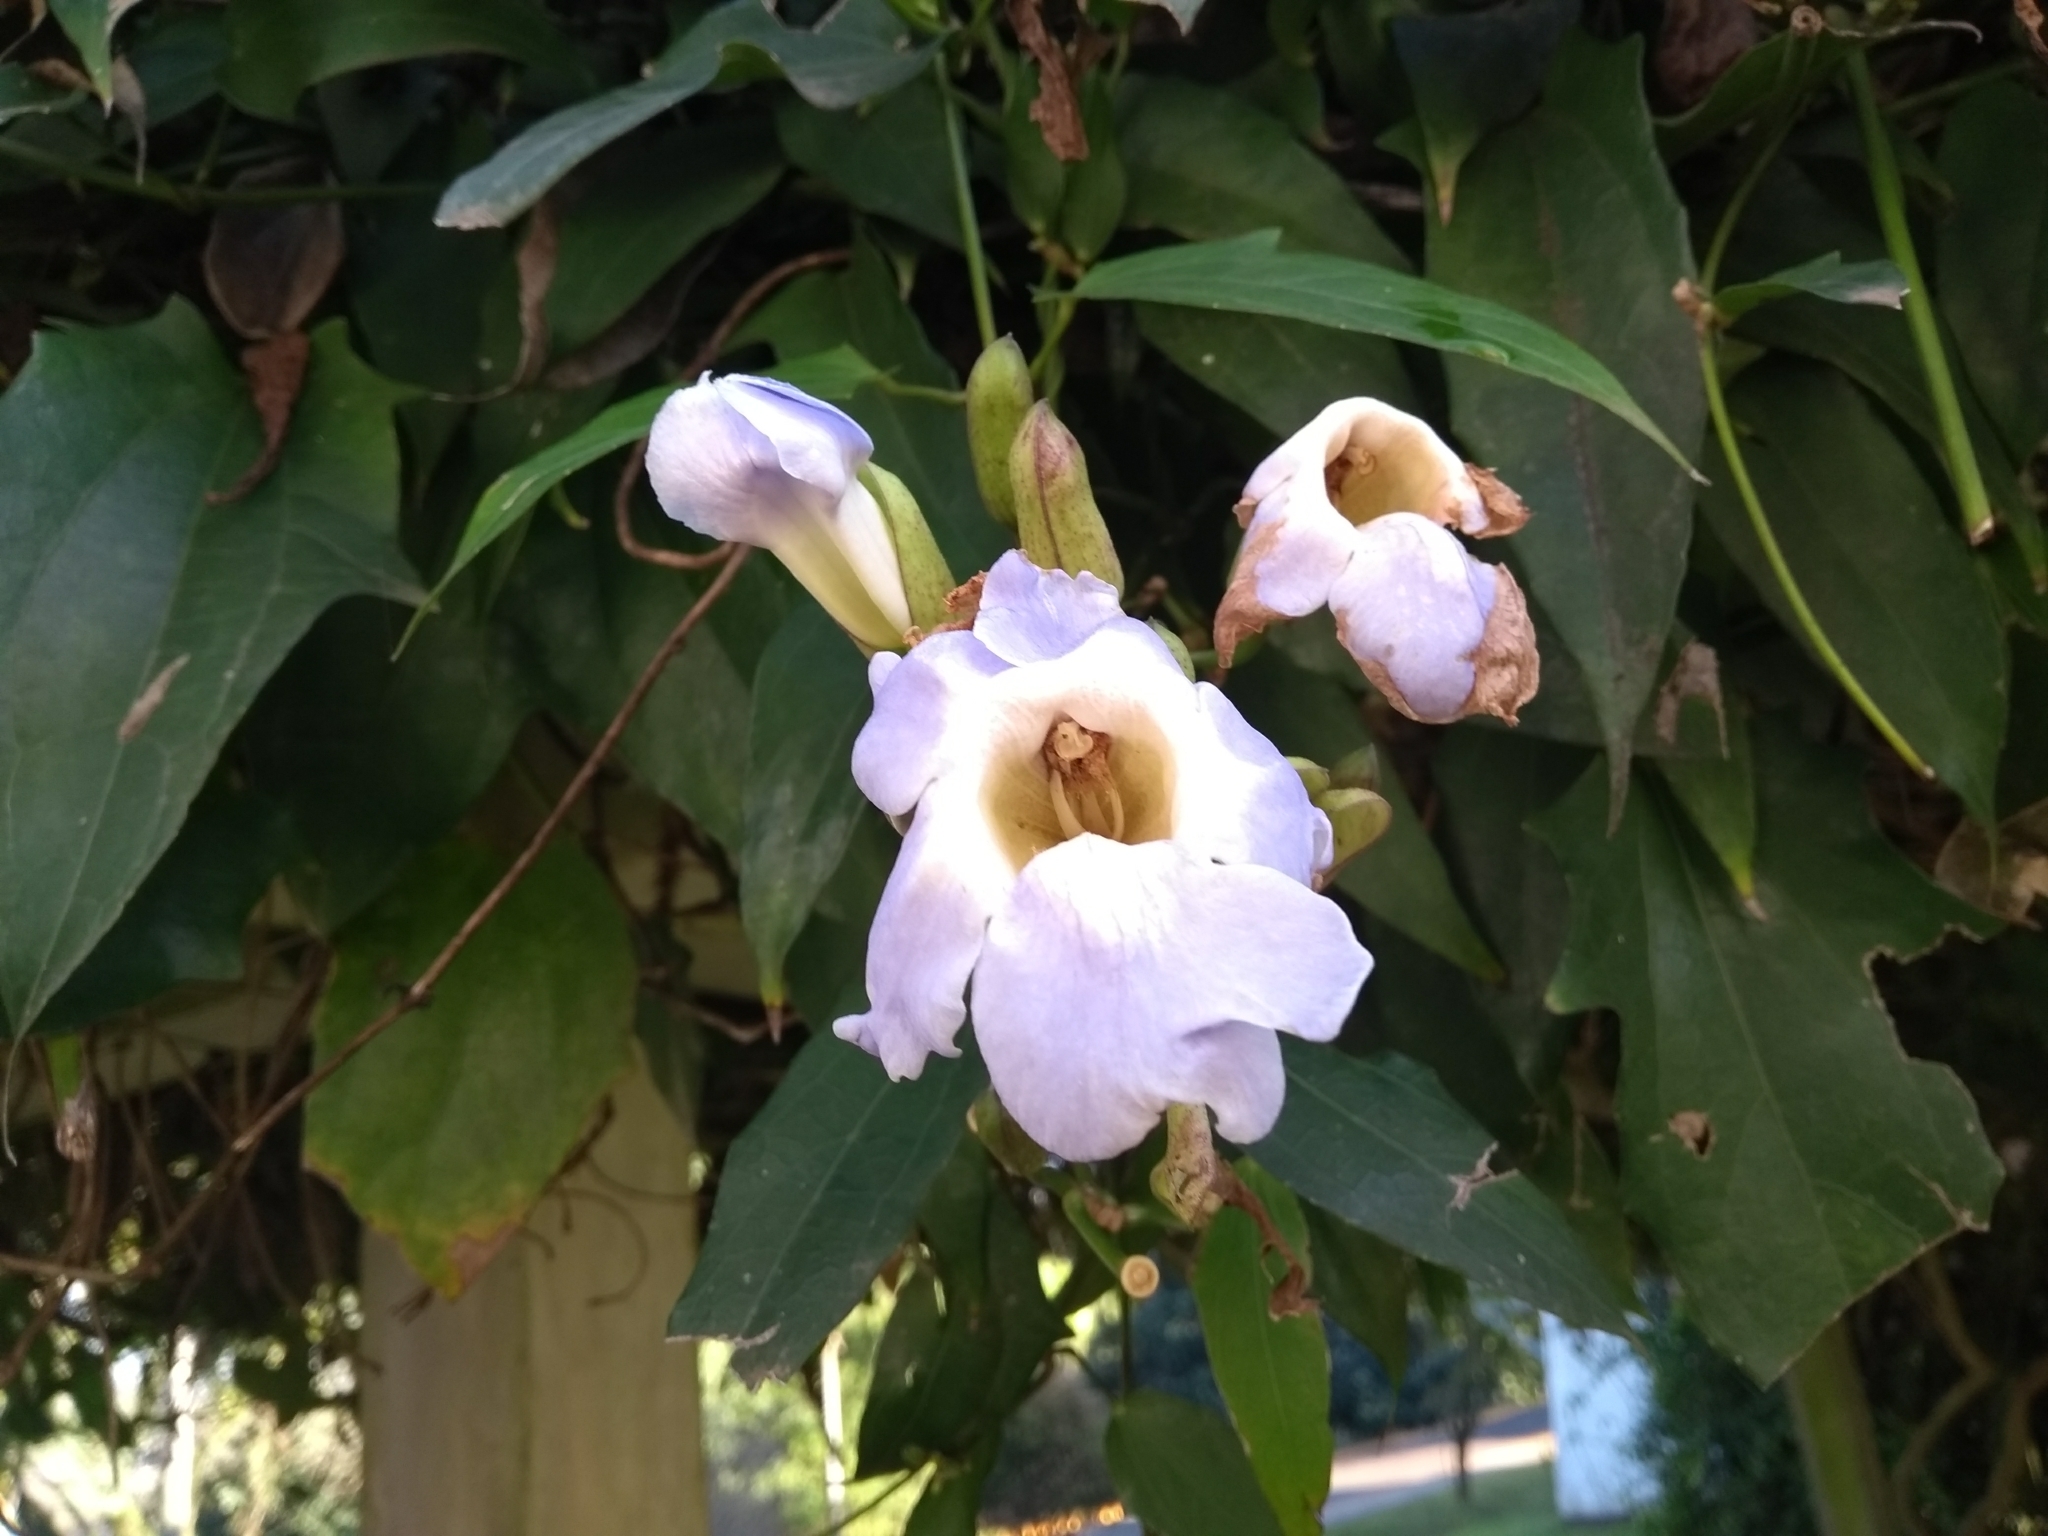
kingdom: Plantae
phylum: Tracheophyta
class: Magnoliopsida
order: Lamiales
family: Acanthaceae
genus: Thunbergia
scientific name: Thunbergia grandiflora
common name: Bengal trumpet
